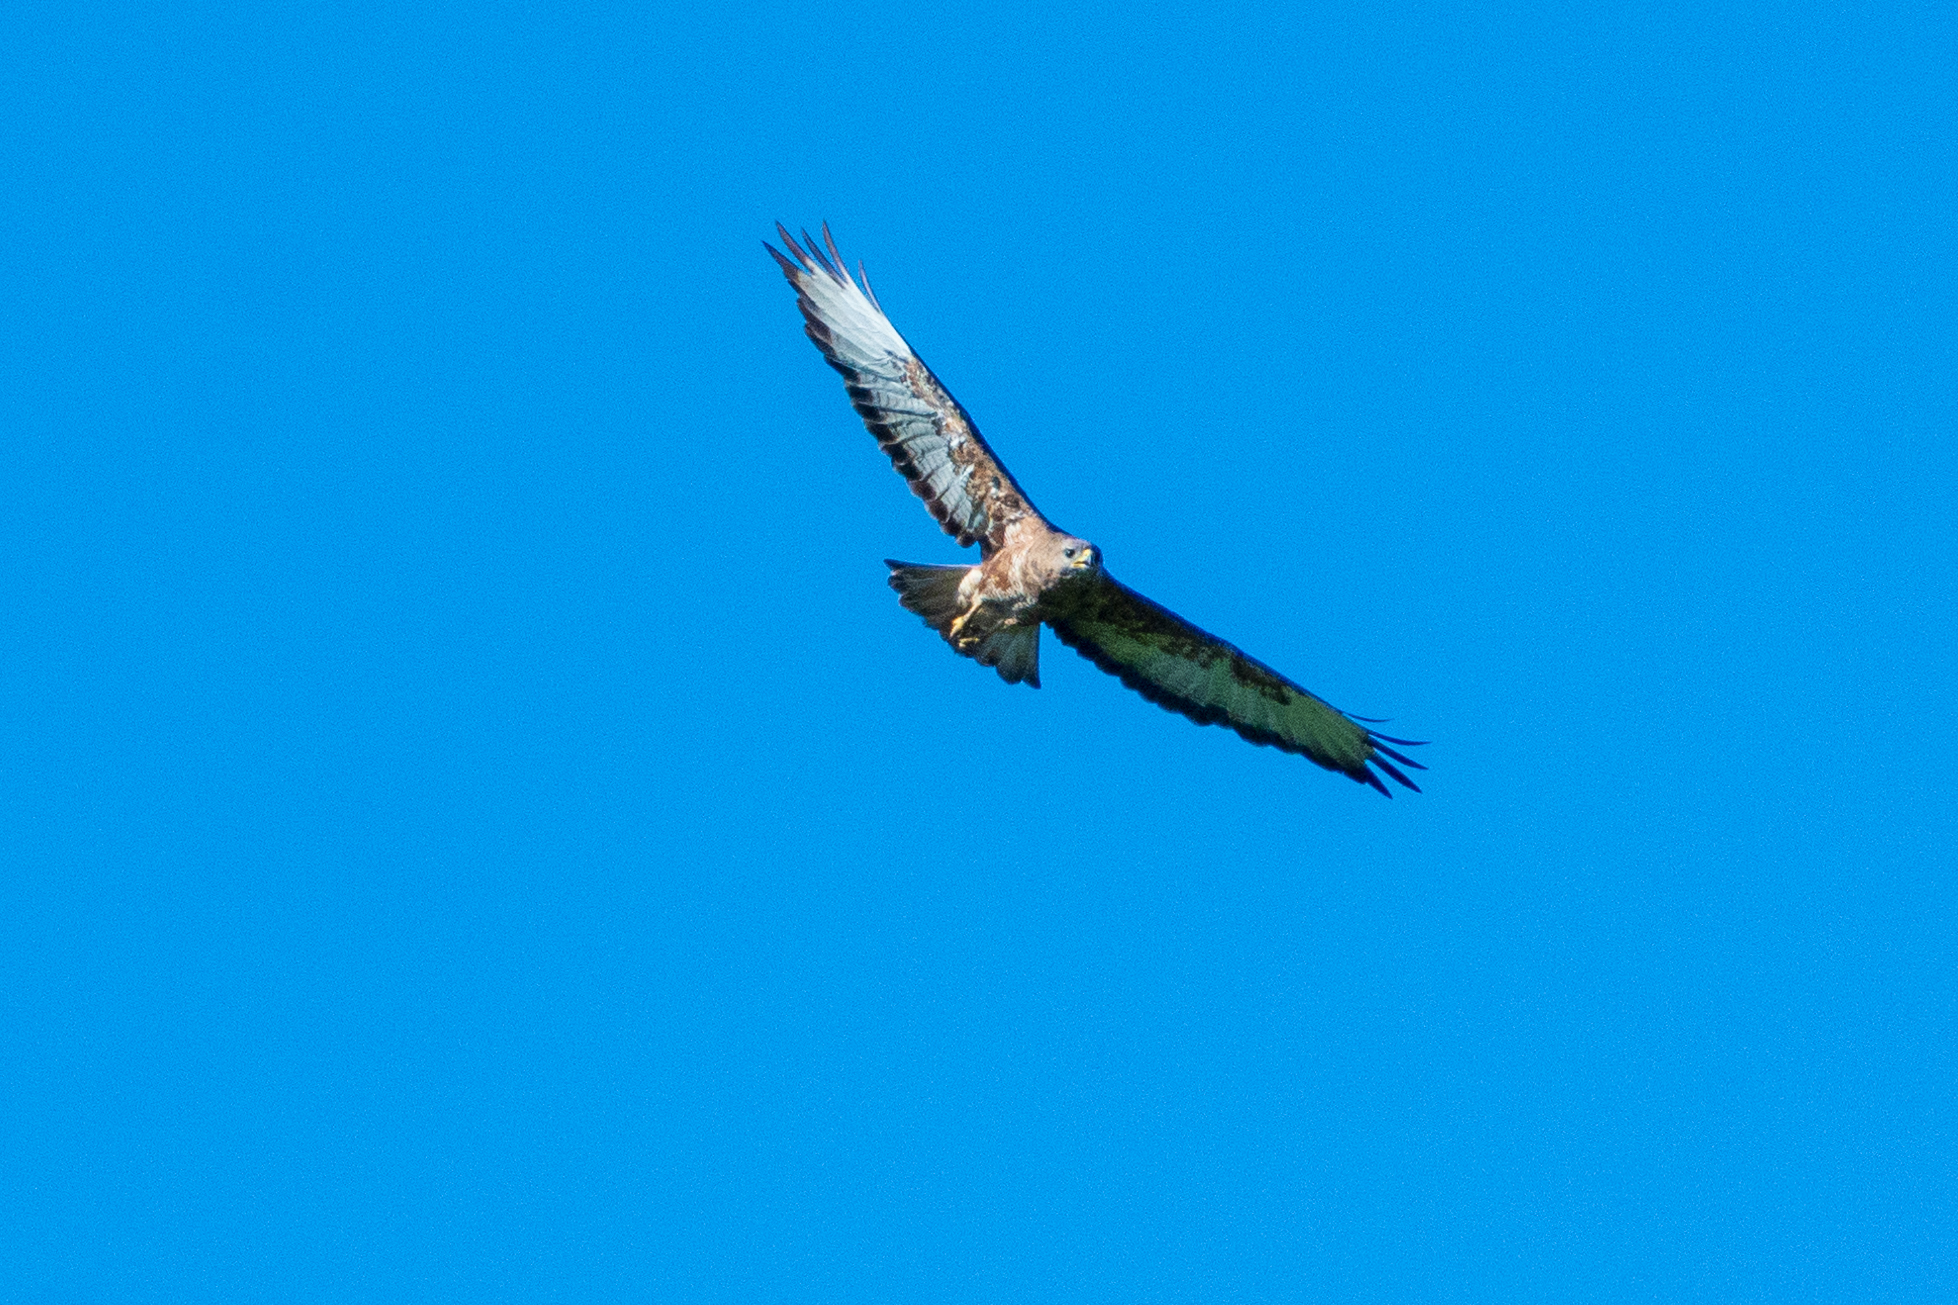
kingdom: Animalia
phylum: Chordata
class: Aves
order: Accipitriformes
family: Accipitridae
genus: Buteo
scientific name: Buteo buteo
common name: Common buzzard
